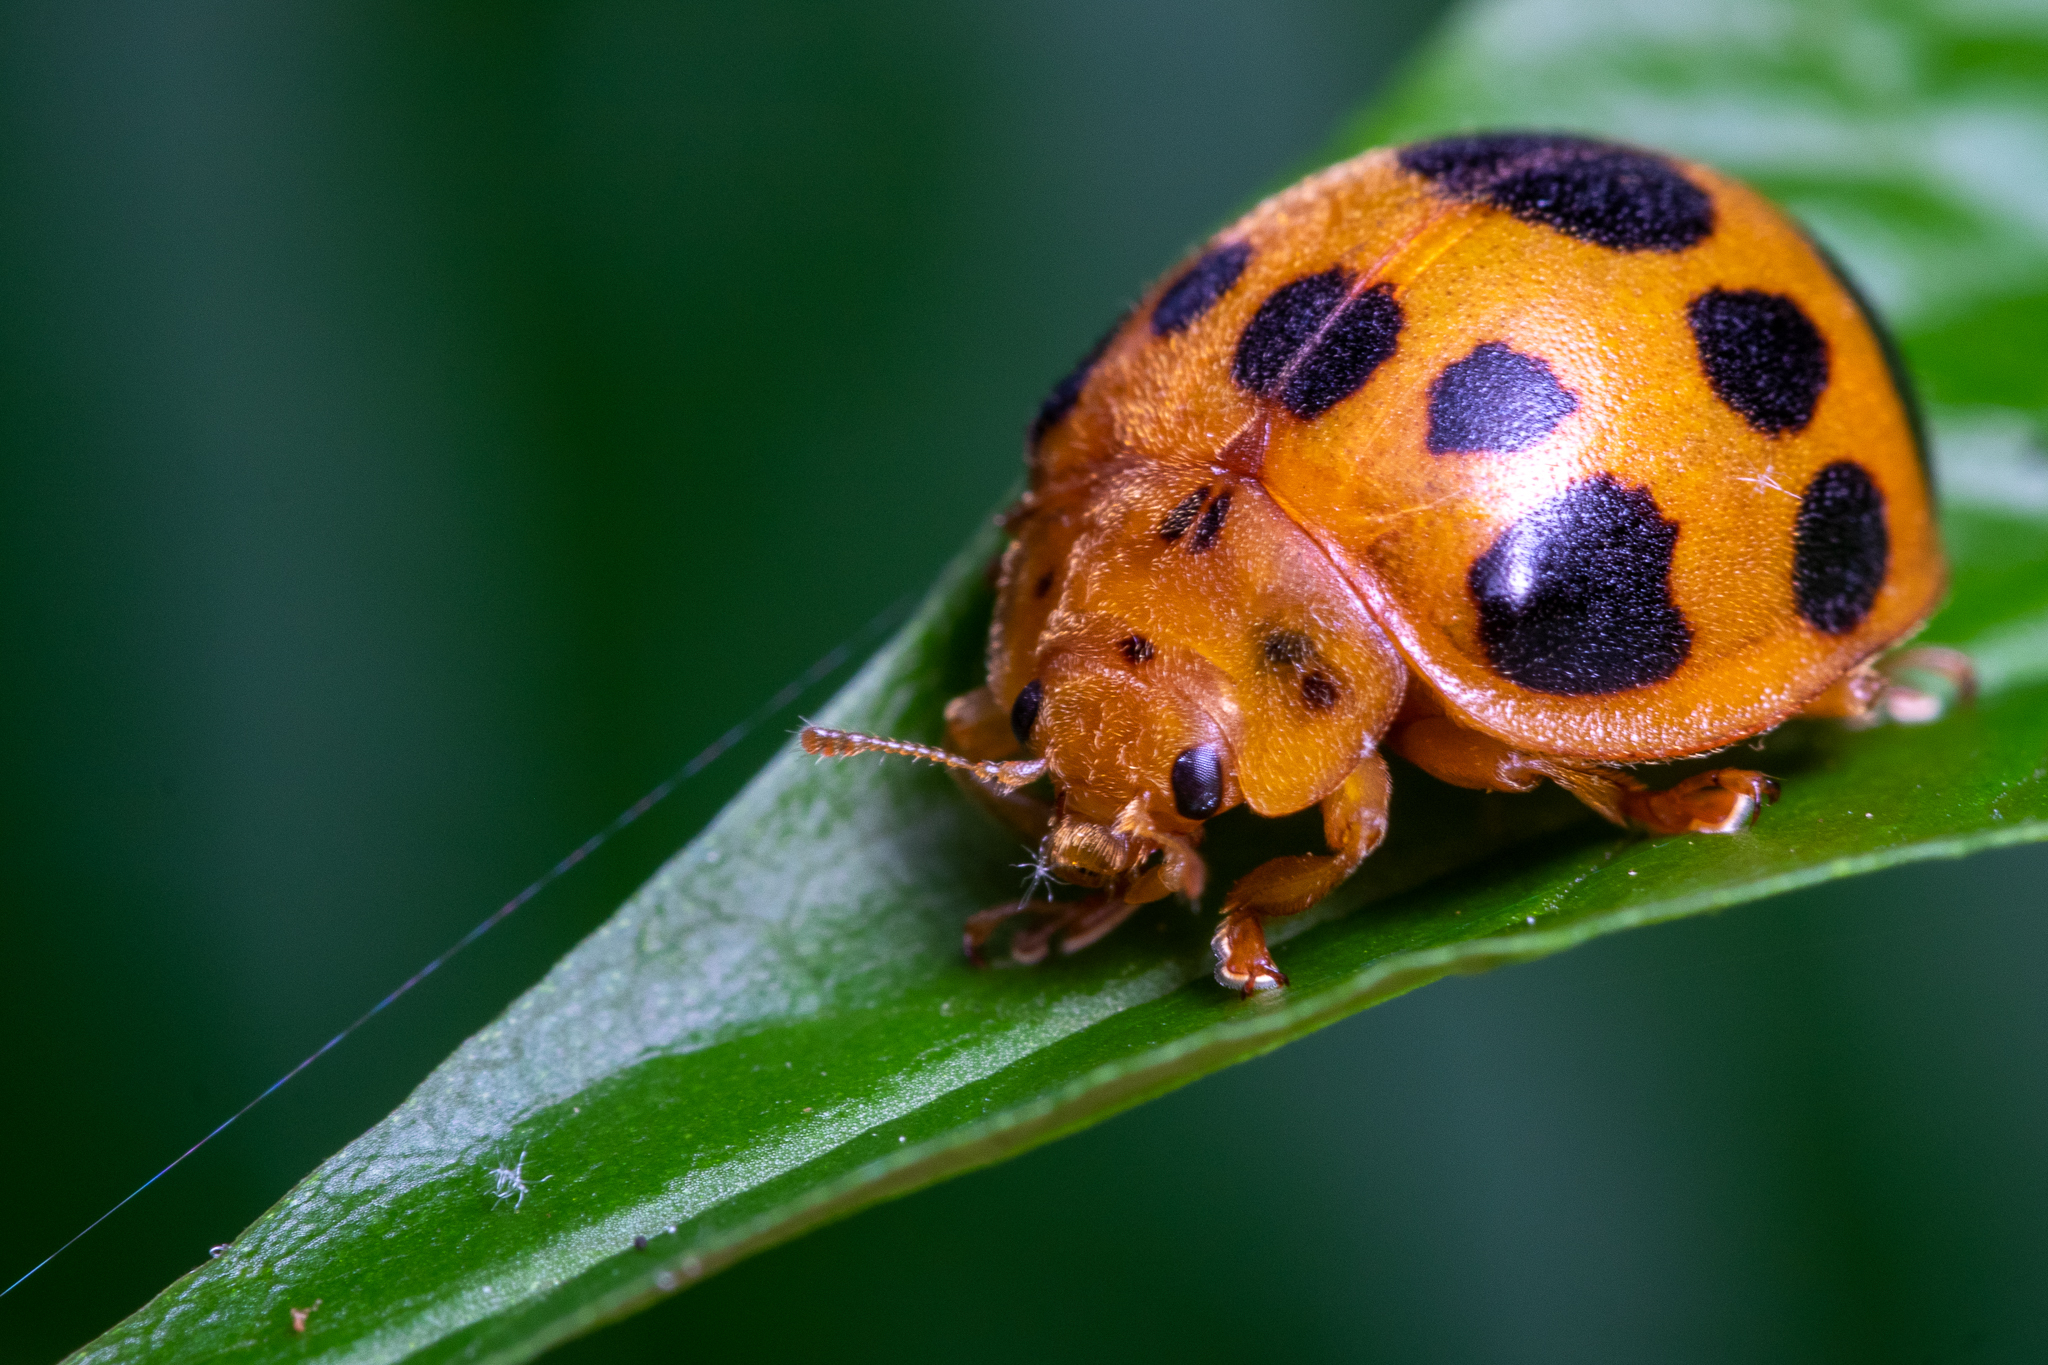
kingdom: Animalia
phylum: Arthropoda
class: Insecta
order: Coleoptera
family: Coccinellidae
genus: Epilachna
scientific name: Epilachna borealis
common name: Squash beetle
